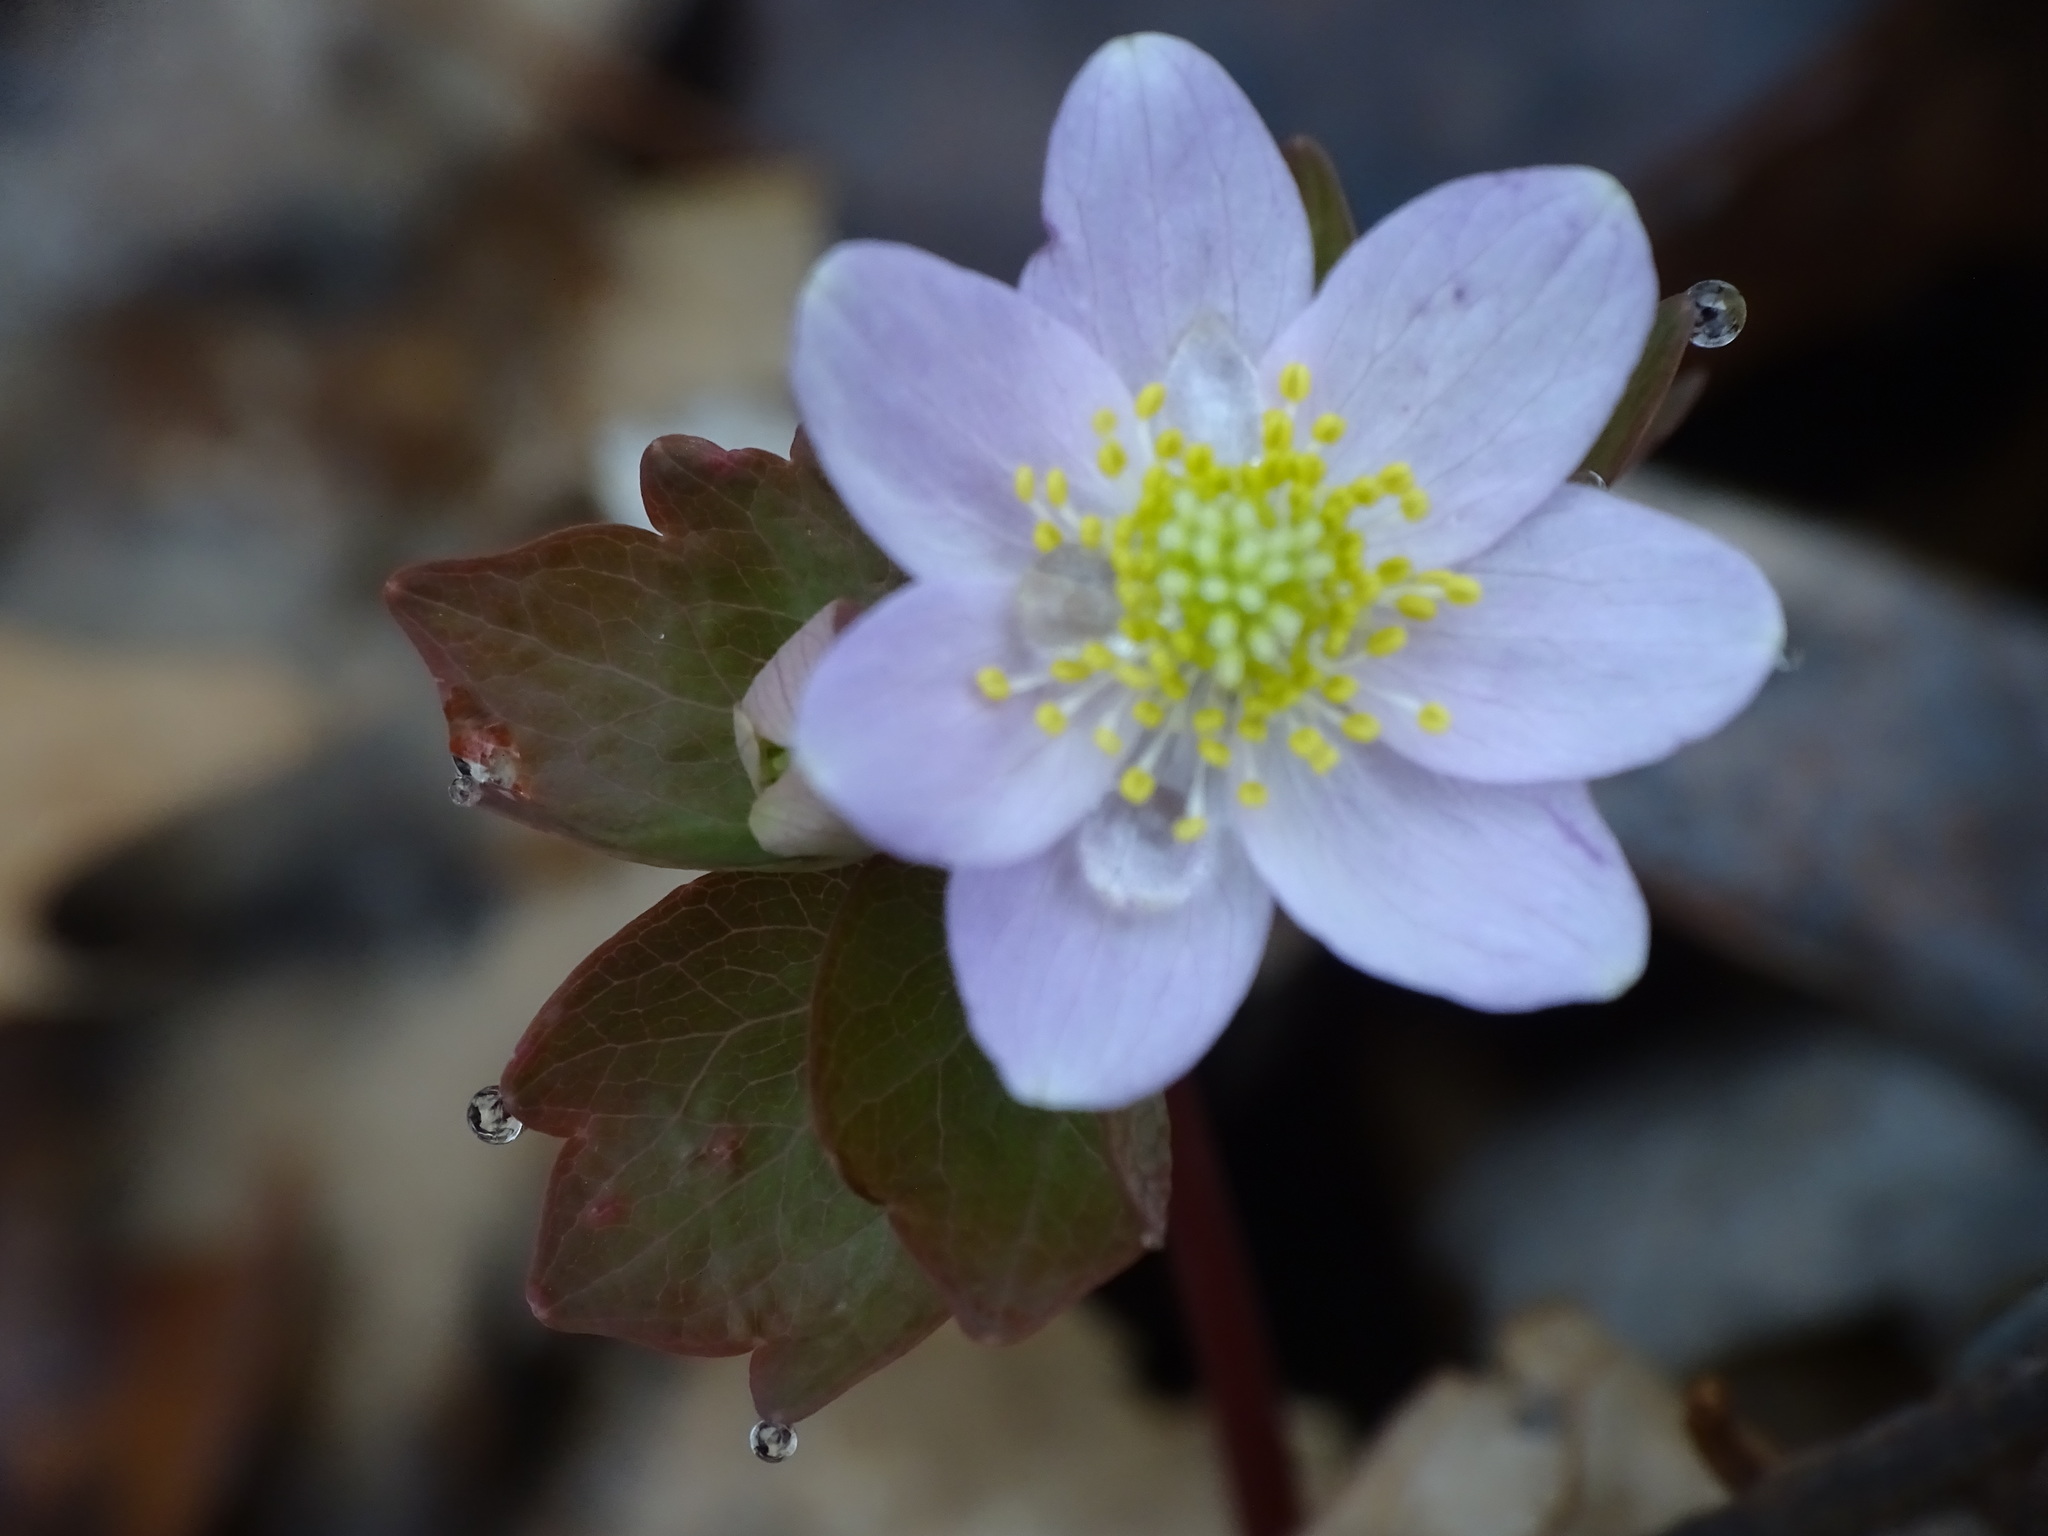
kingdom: Plantae
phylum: Tracheophyta
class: Magnoliopsida
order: Ranunculales
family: Ranunculaceae
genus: Thalictrum
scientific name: Thalictrum thalictroides
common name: Rue-anemone
